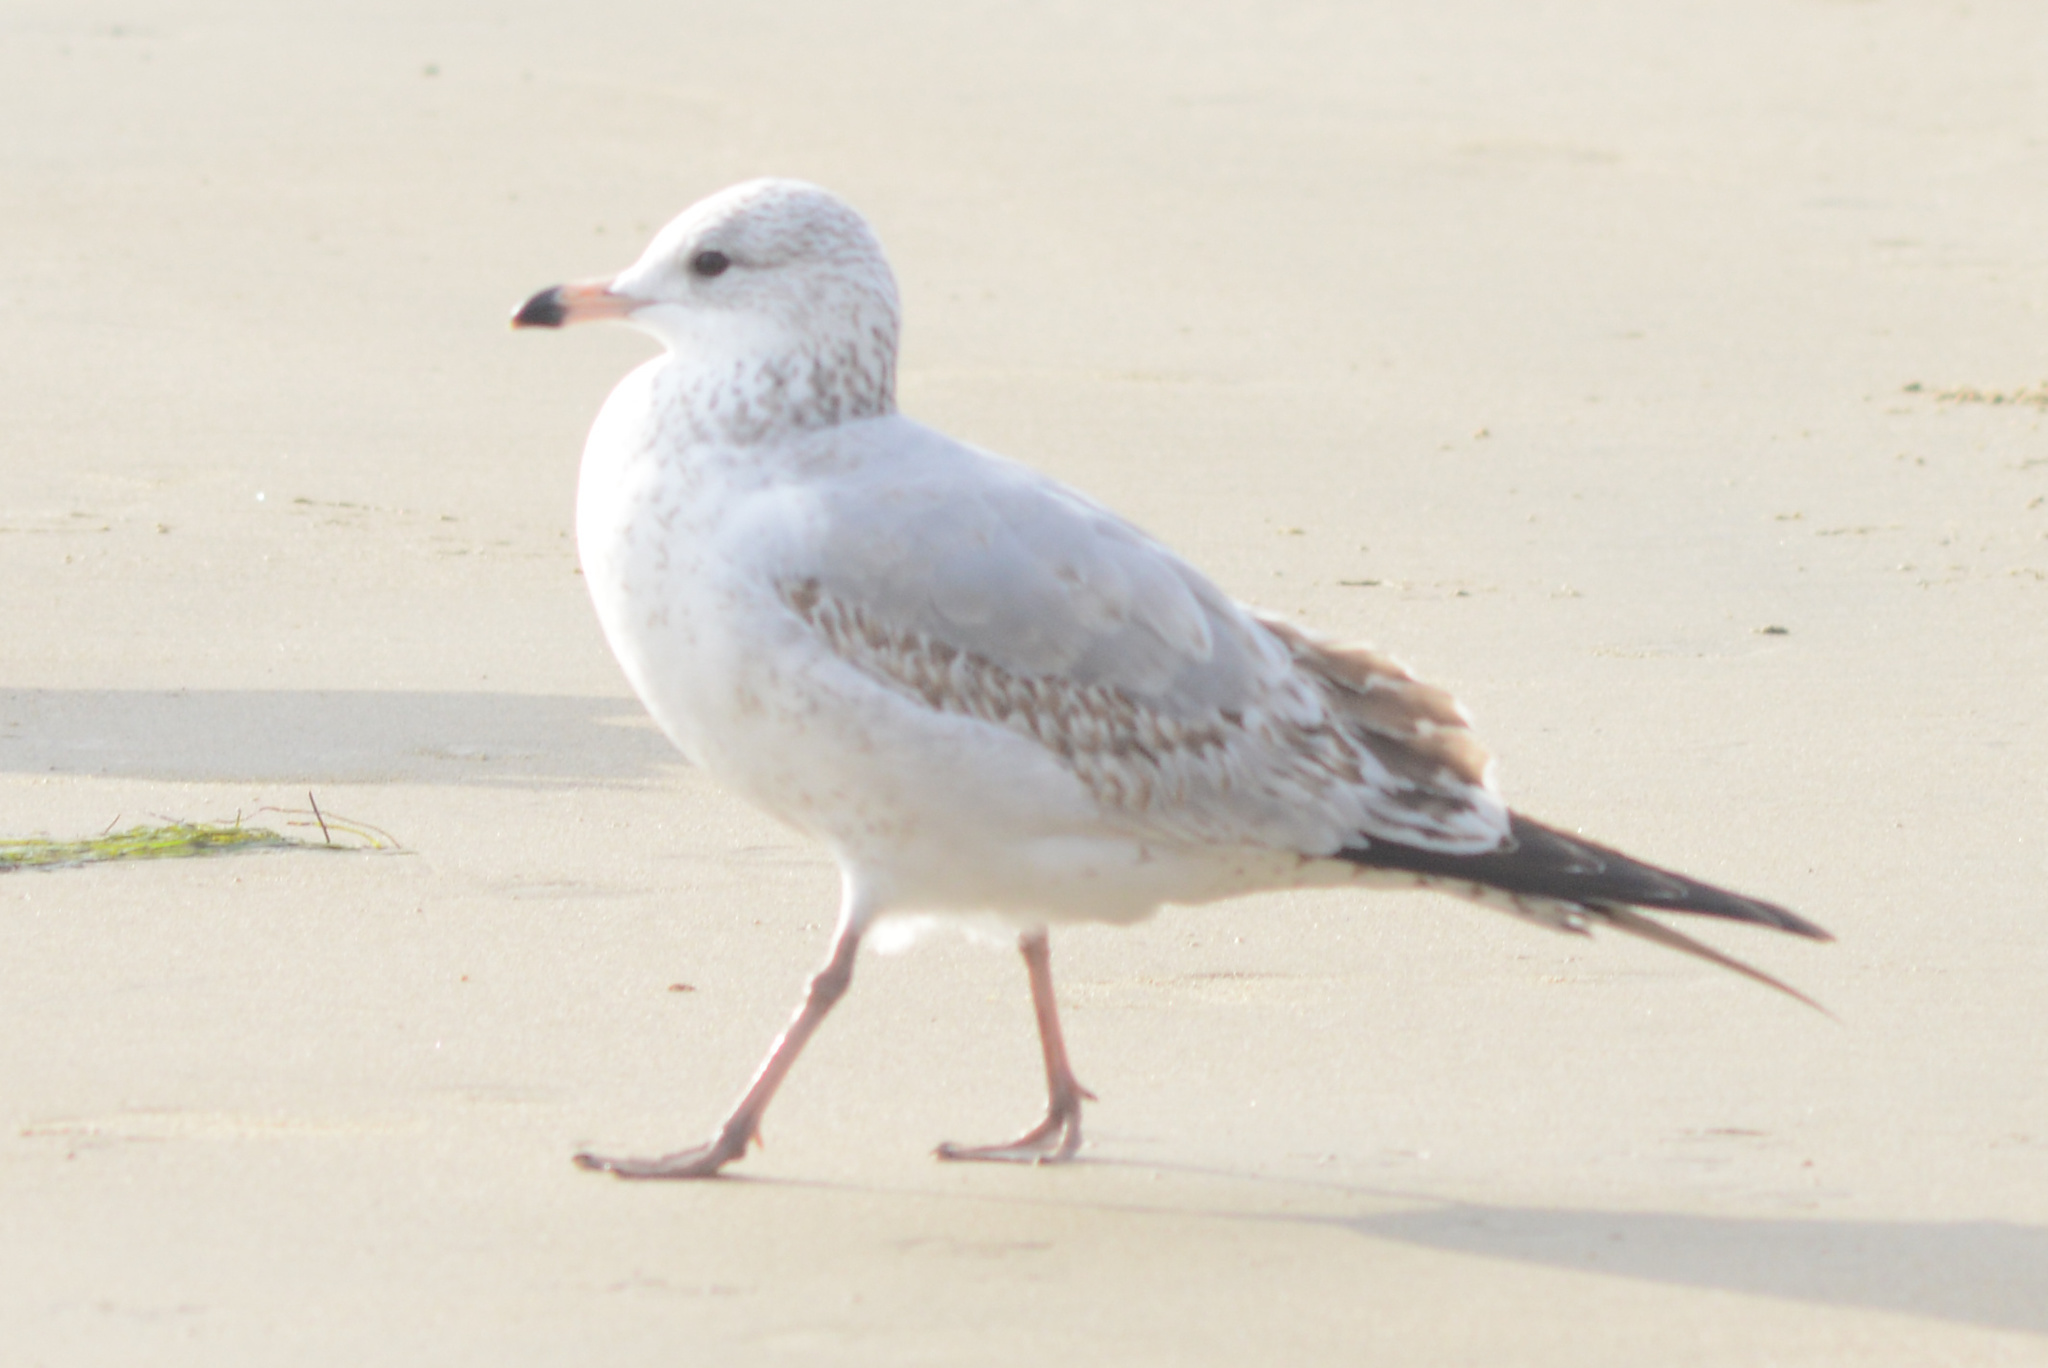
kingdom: Animalia
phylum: Chordata
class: Aves
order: Charadriiformes
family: Laridae
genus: Larus
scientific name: Larus delawarensis
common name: Ring-billed gull
